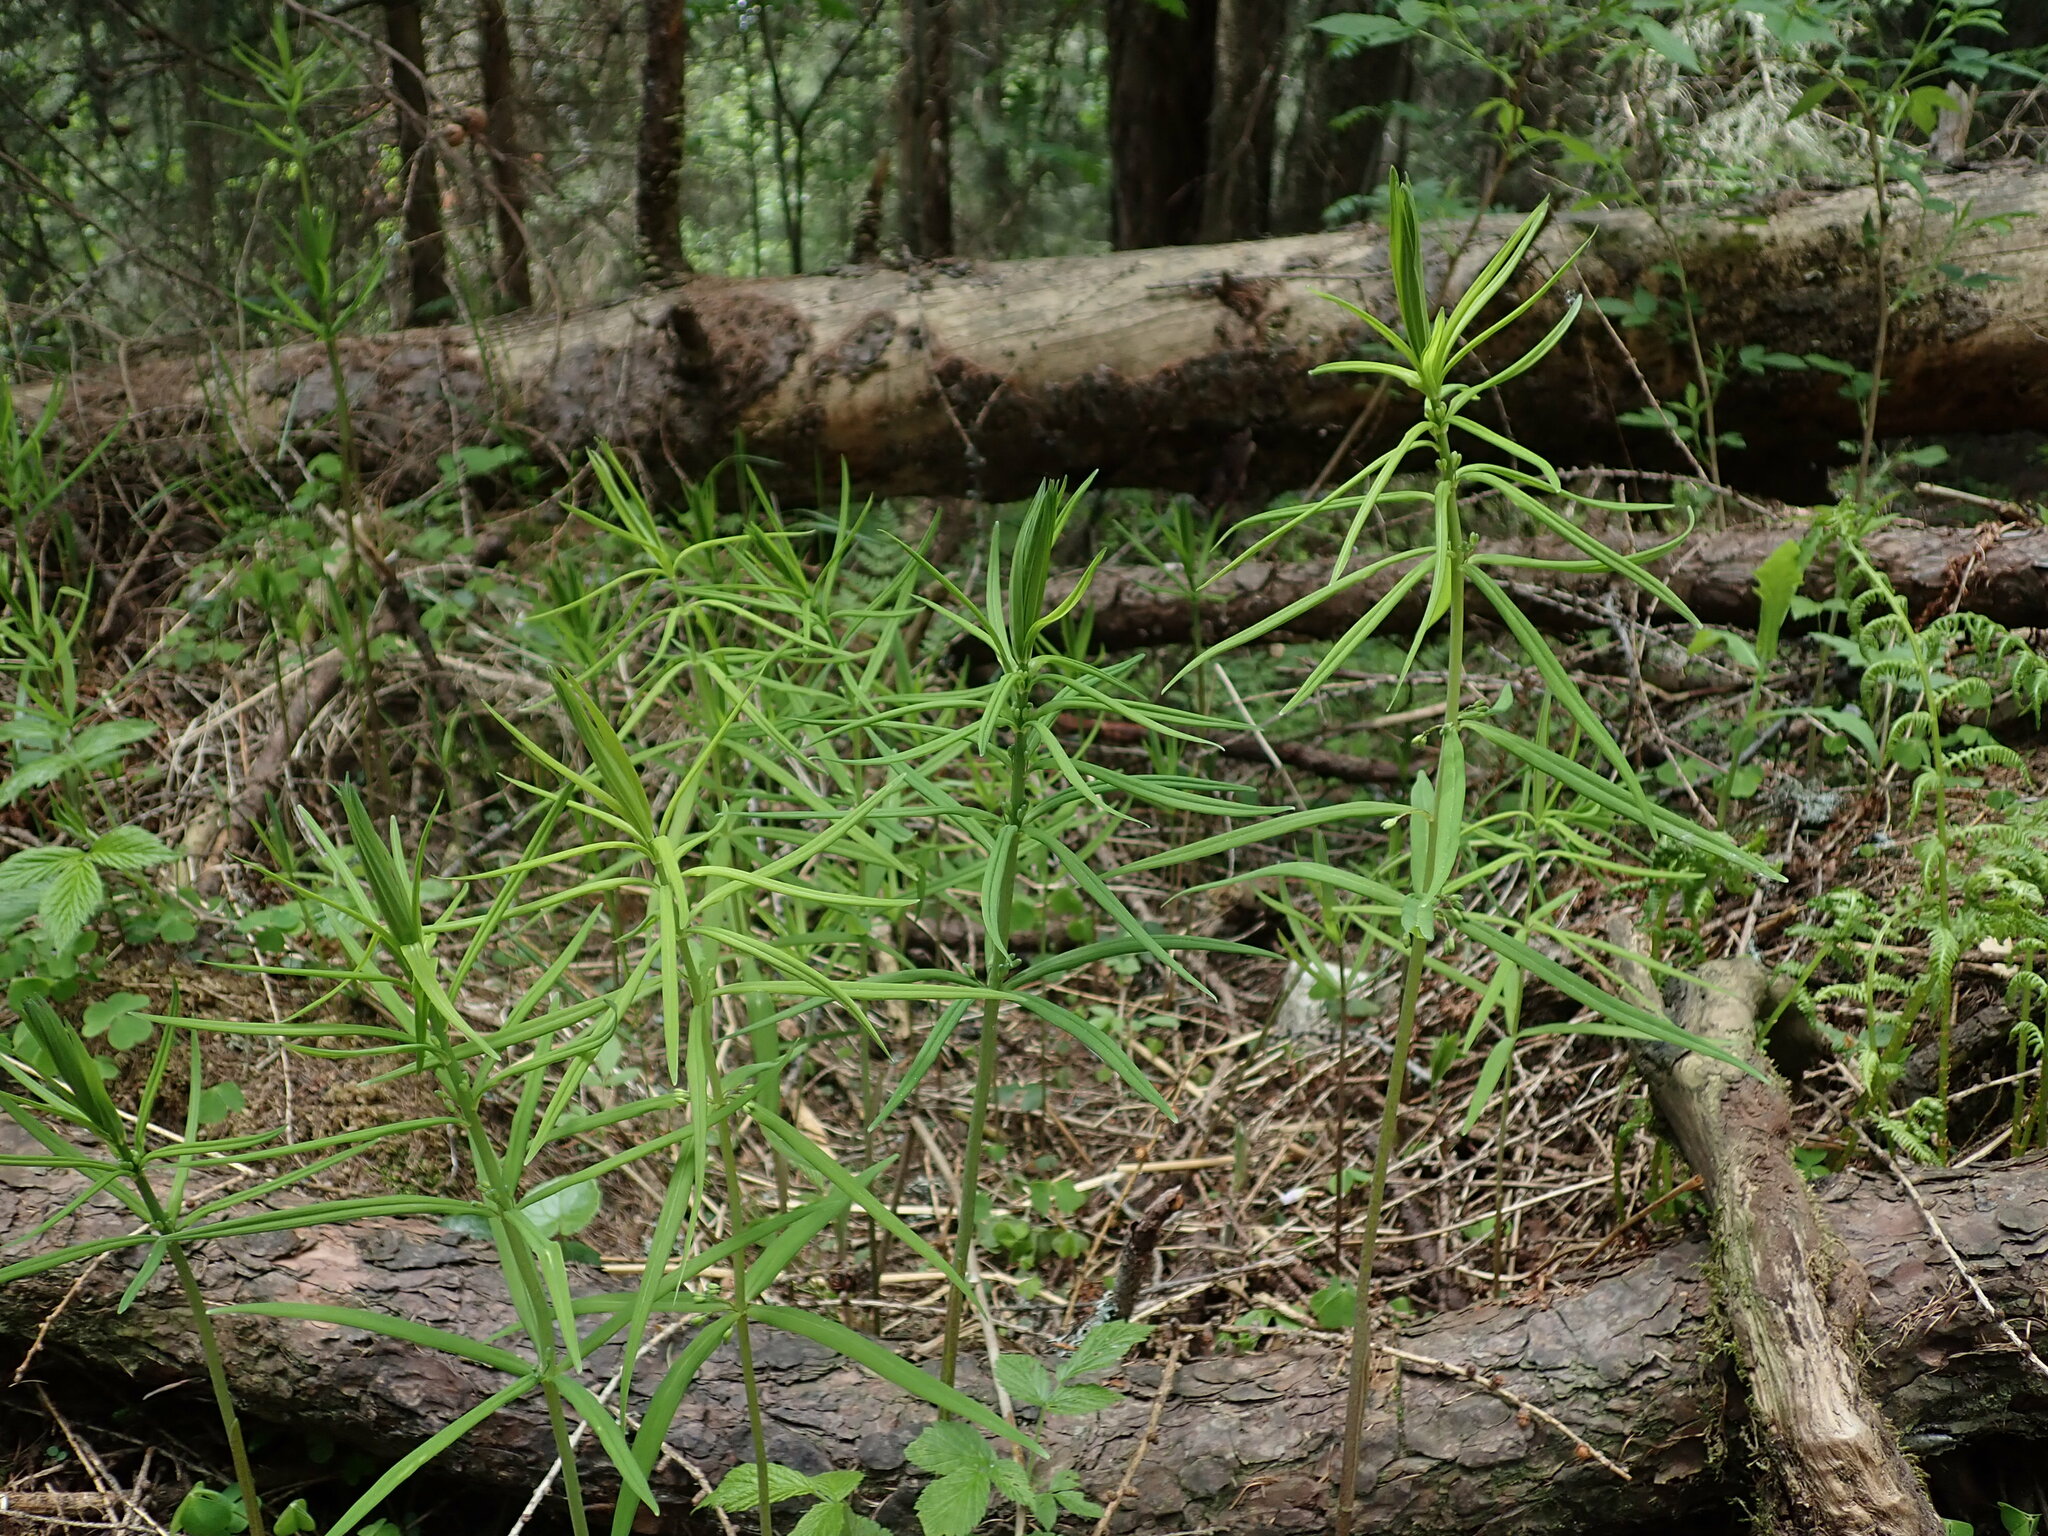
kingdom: Plantae
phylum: Tracheophyta
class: Liliopsida
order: Asparagales
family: Asparagaceae
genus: Polygonatum
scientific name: Polygonatum verticillatum
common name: Whorled solomon's-seal
